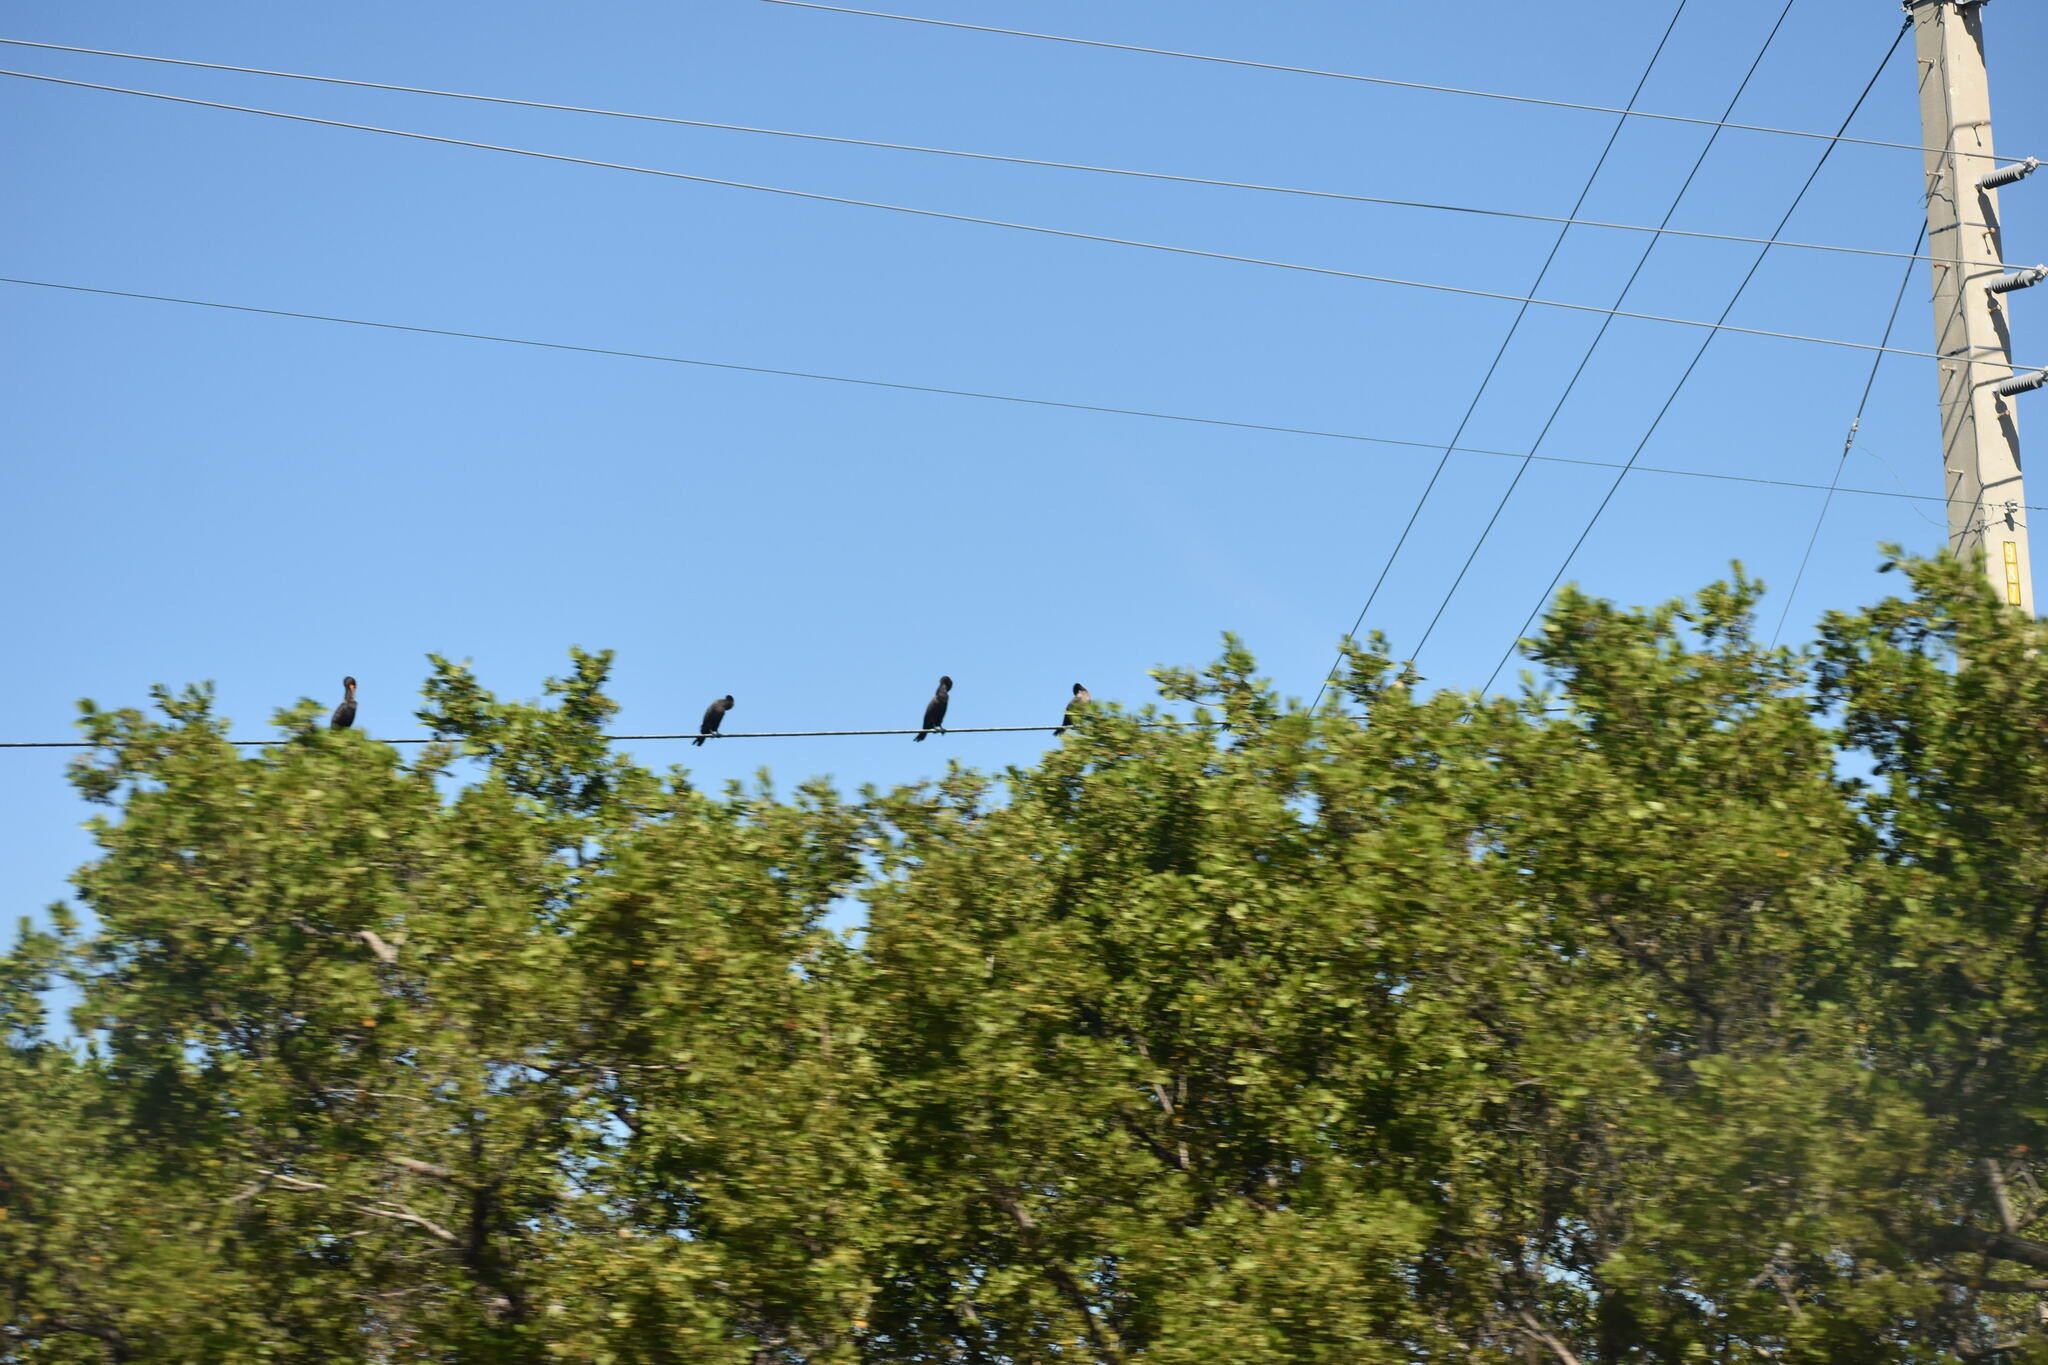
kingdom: Animalia
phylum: Chordata
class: Aves
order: Suliformes
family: Phalacrocoracidae
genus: Phalacrocorax
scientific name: Phalacrocorax auritus
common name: Double-crested cormorant
